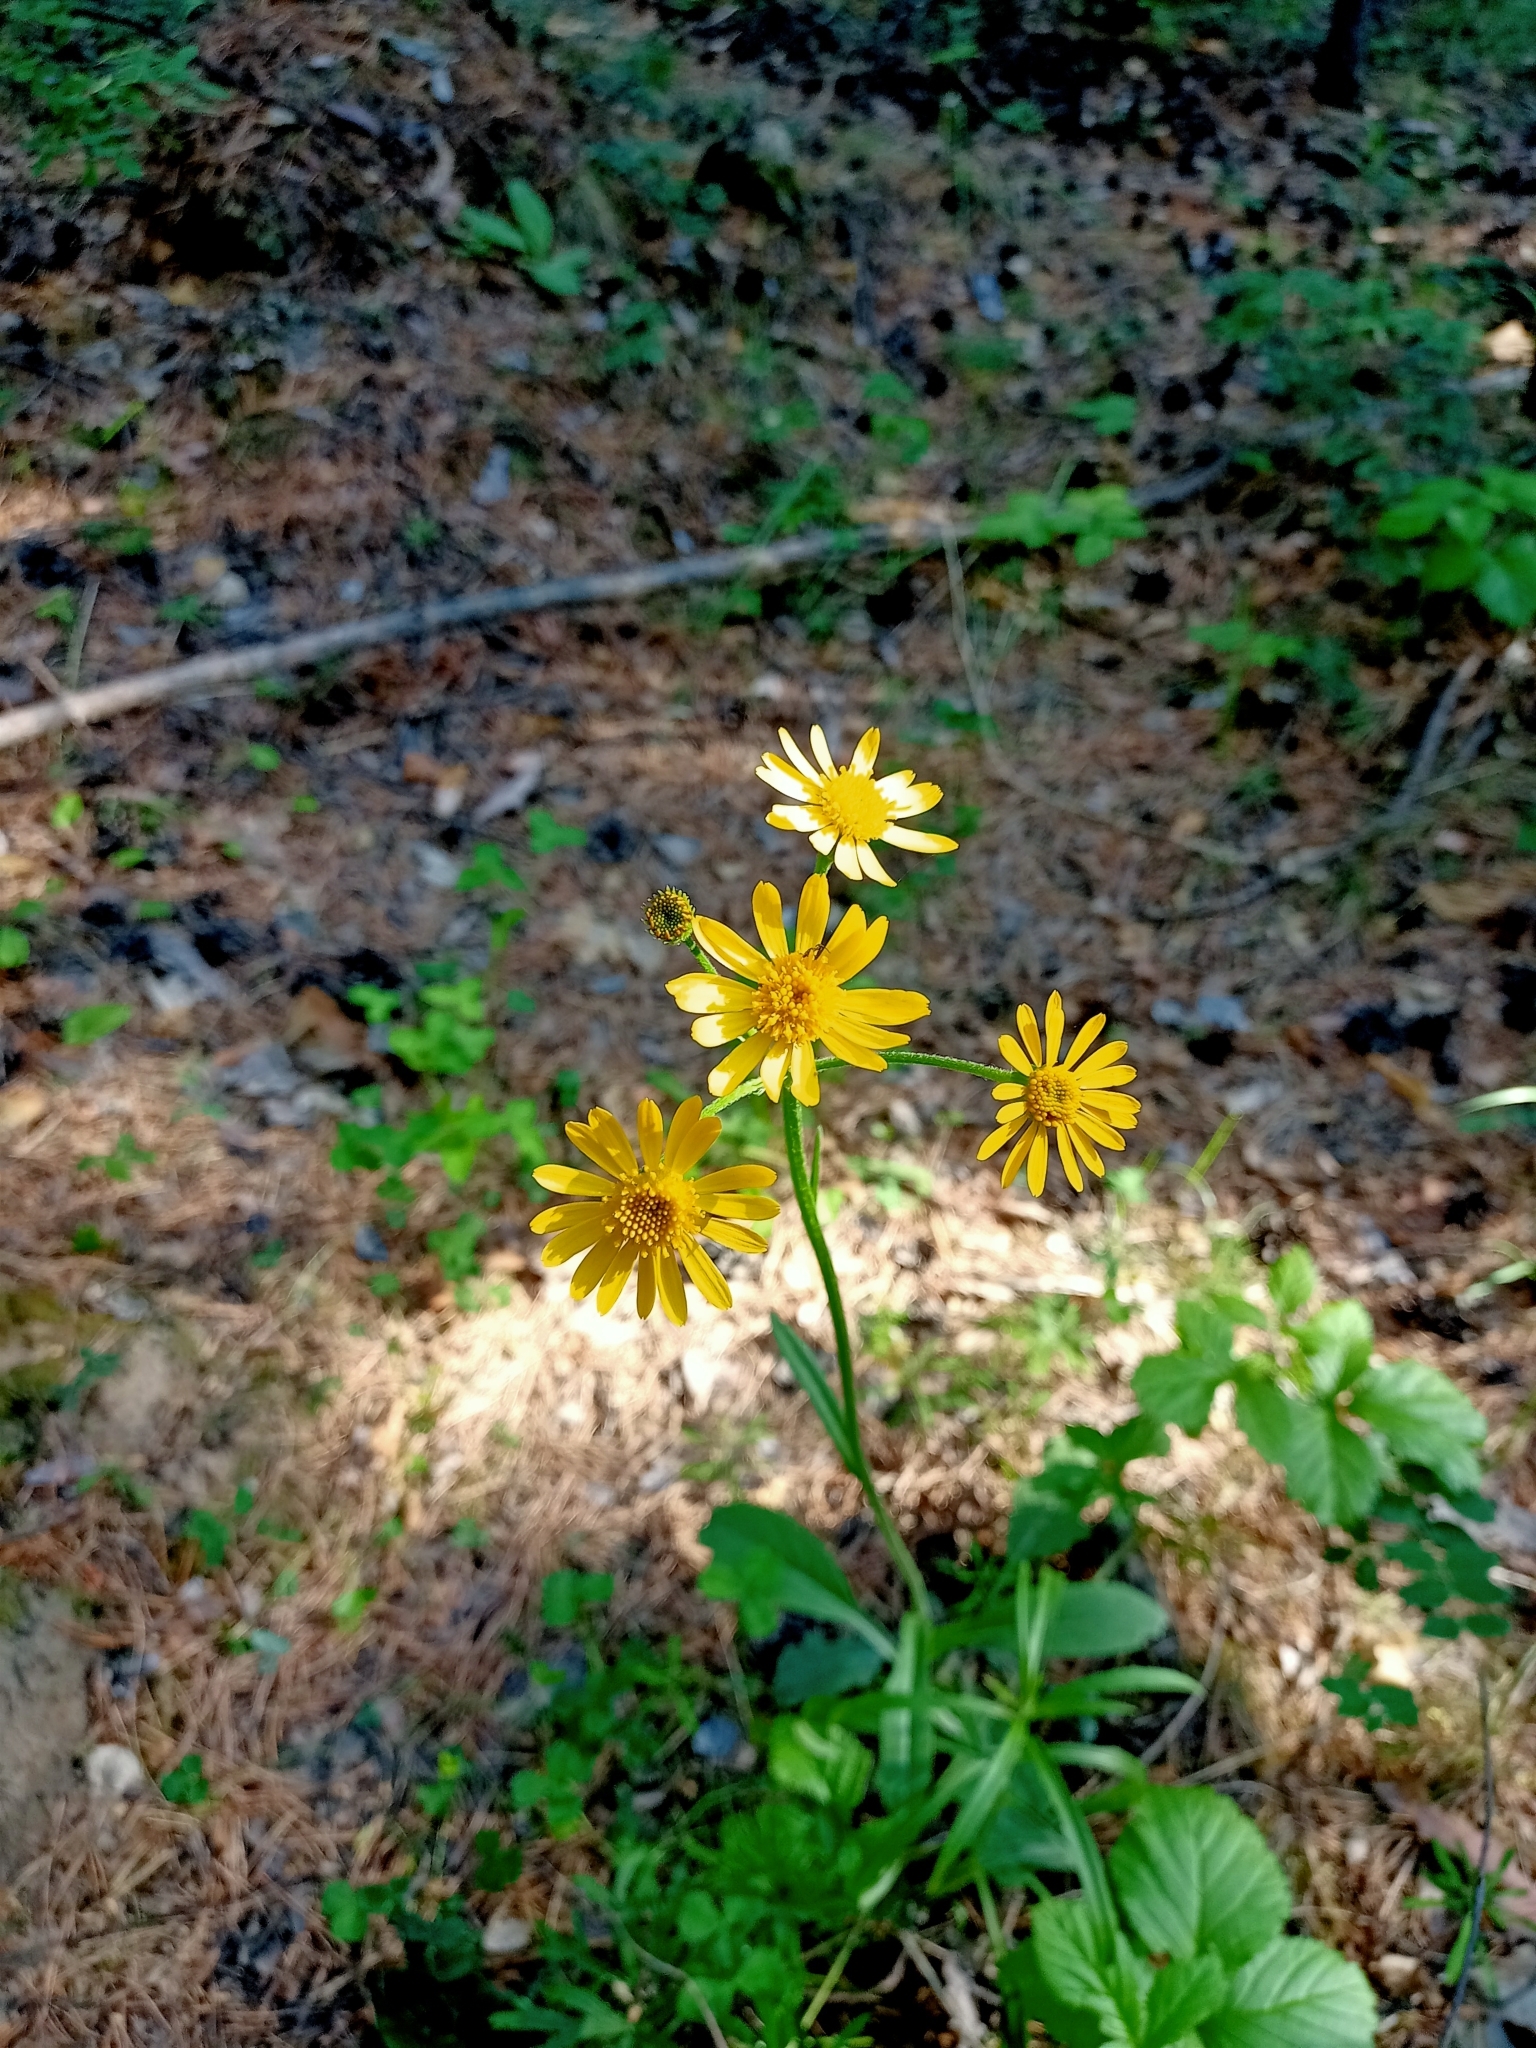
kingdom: Plantae
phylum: Tracheophyta
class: Magnoliopsida
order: Asterales
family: Asteraceae
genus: Tephroseris
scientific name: Tephroseris integrifolia
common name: Field fleawort
